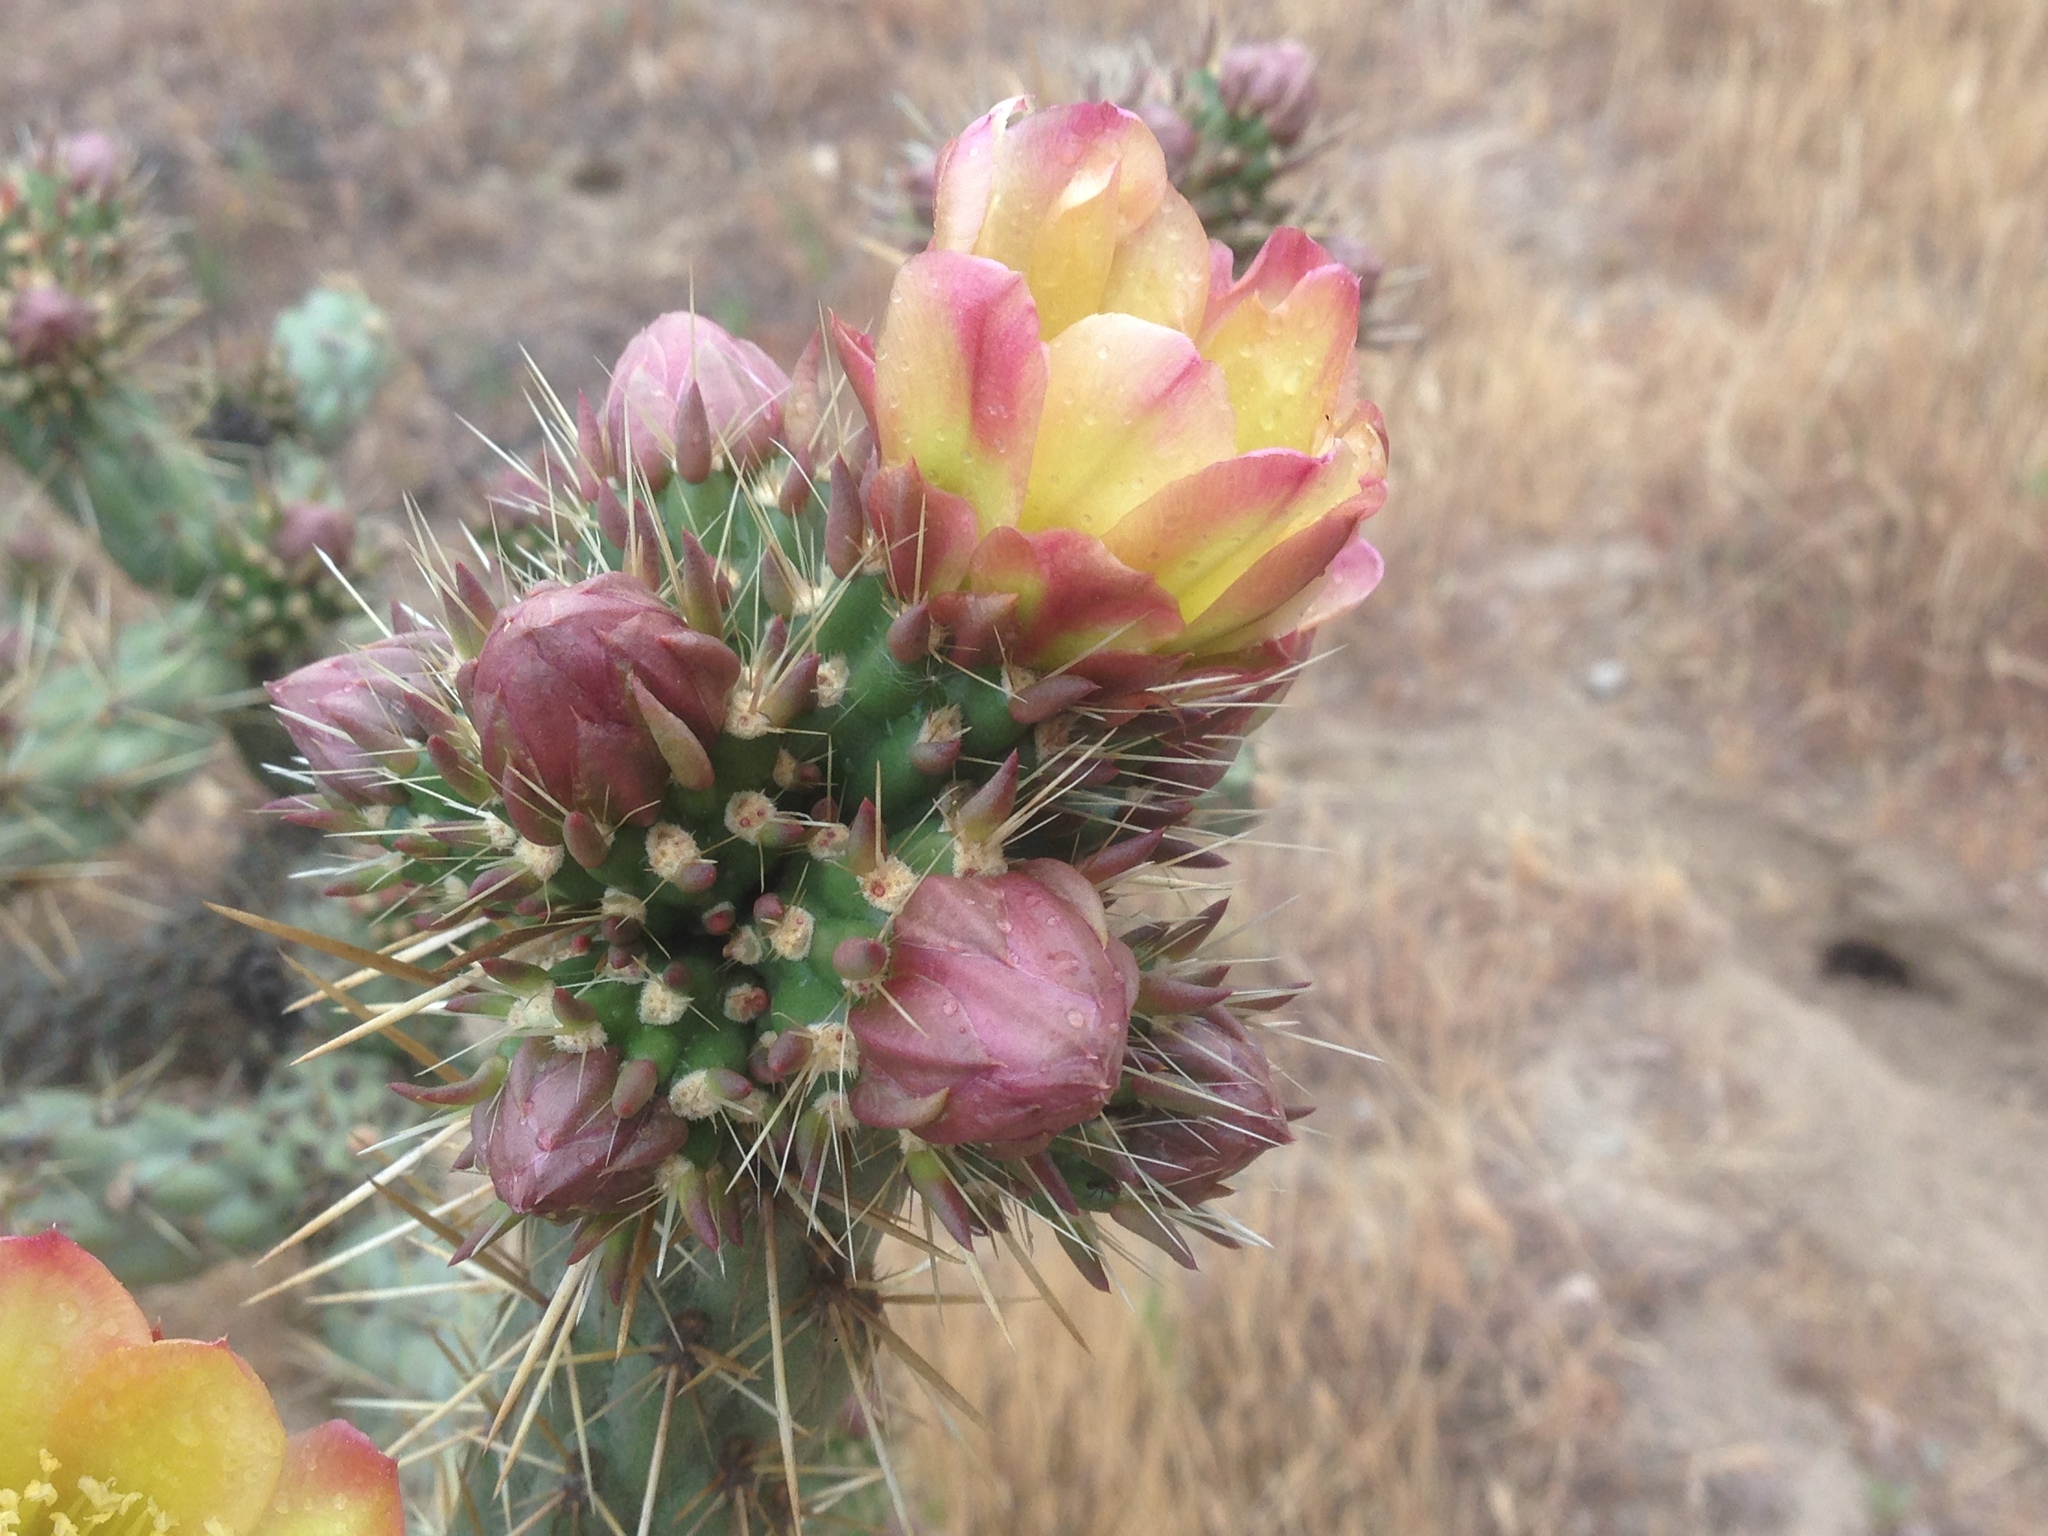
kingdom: Plantae
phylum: Tracheophyta
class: Magnoliopsida
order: Caryophyllales
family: Cactaceae
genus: Cylindropuntia
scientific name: Cylindropuntia bernardina
